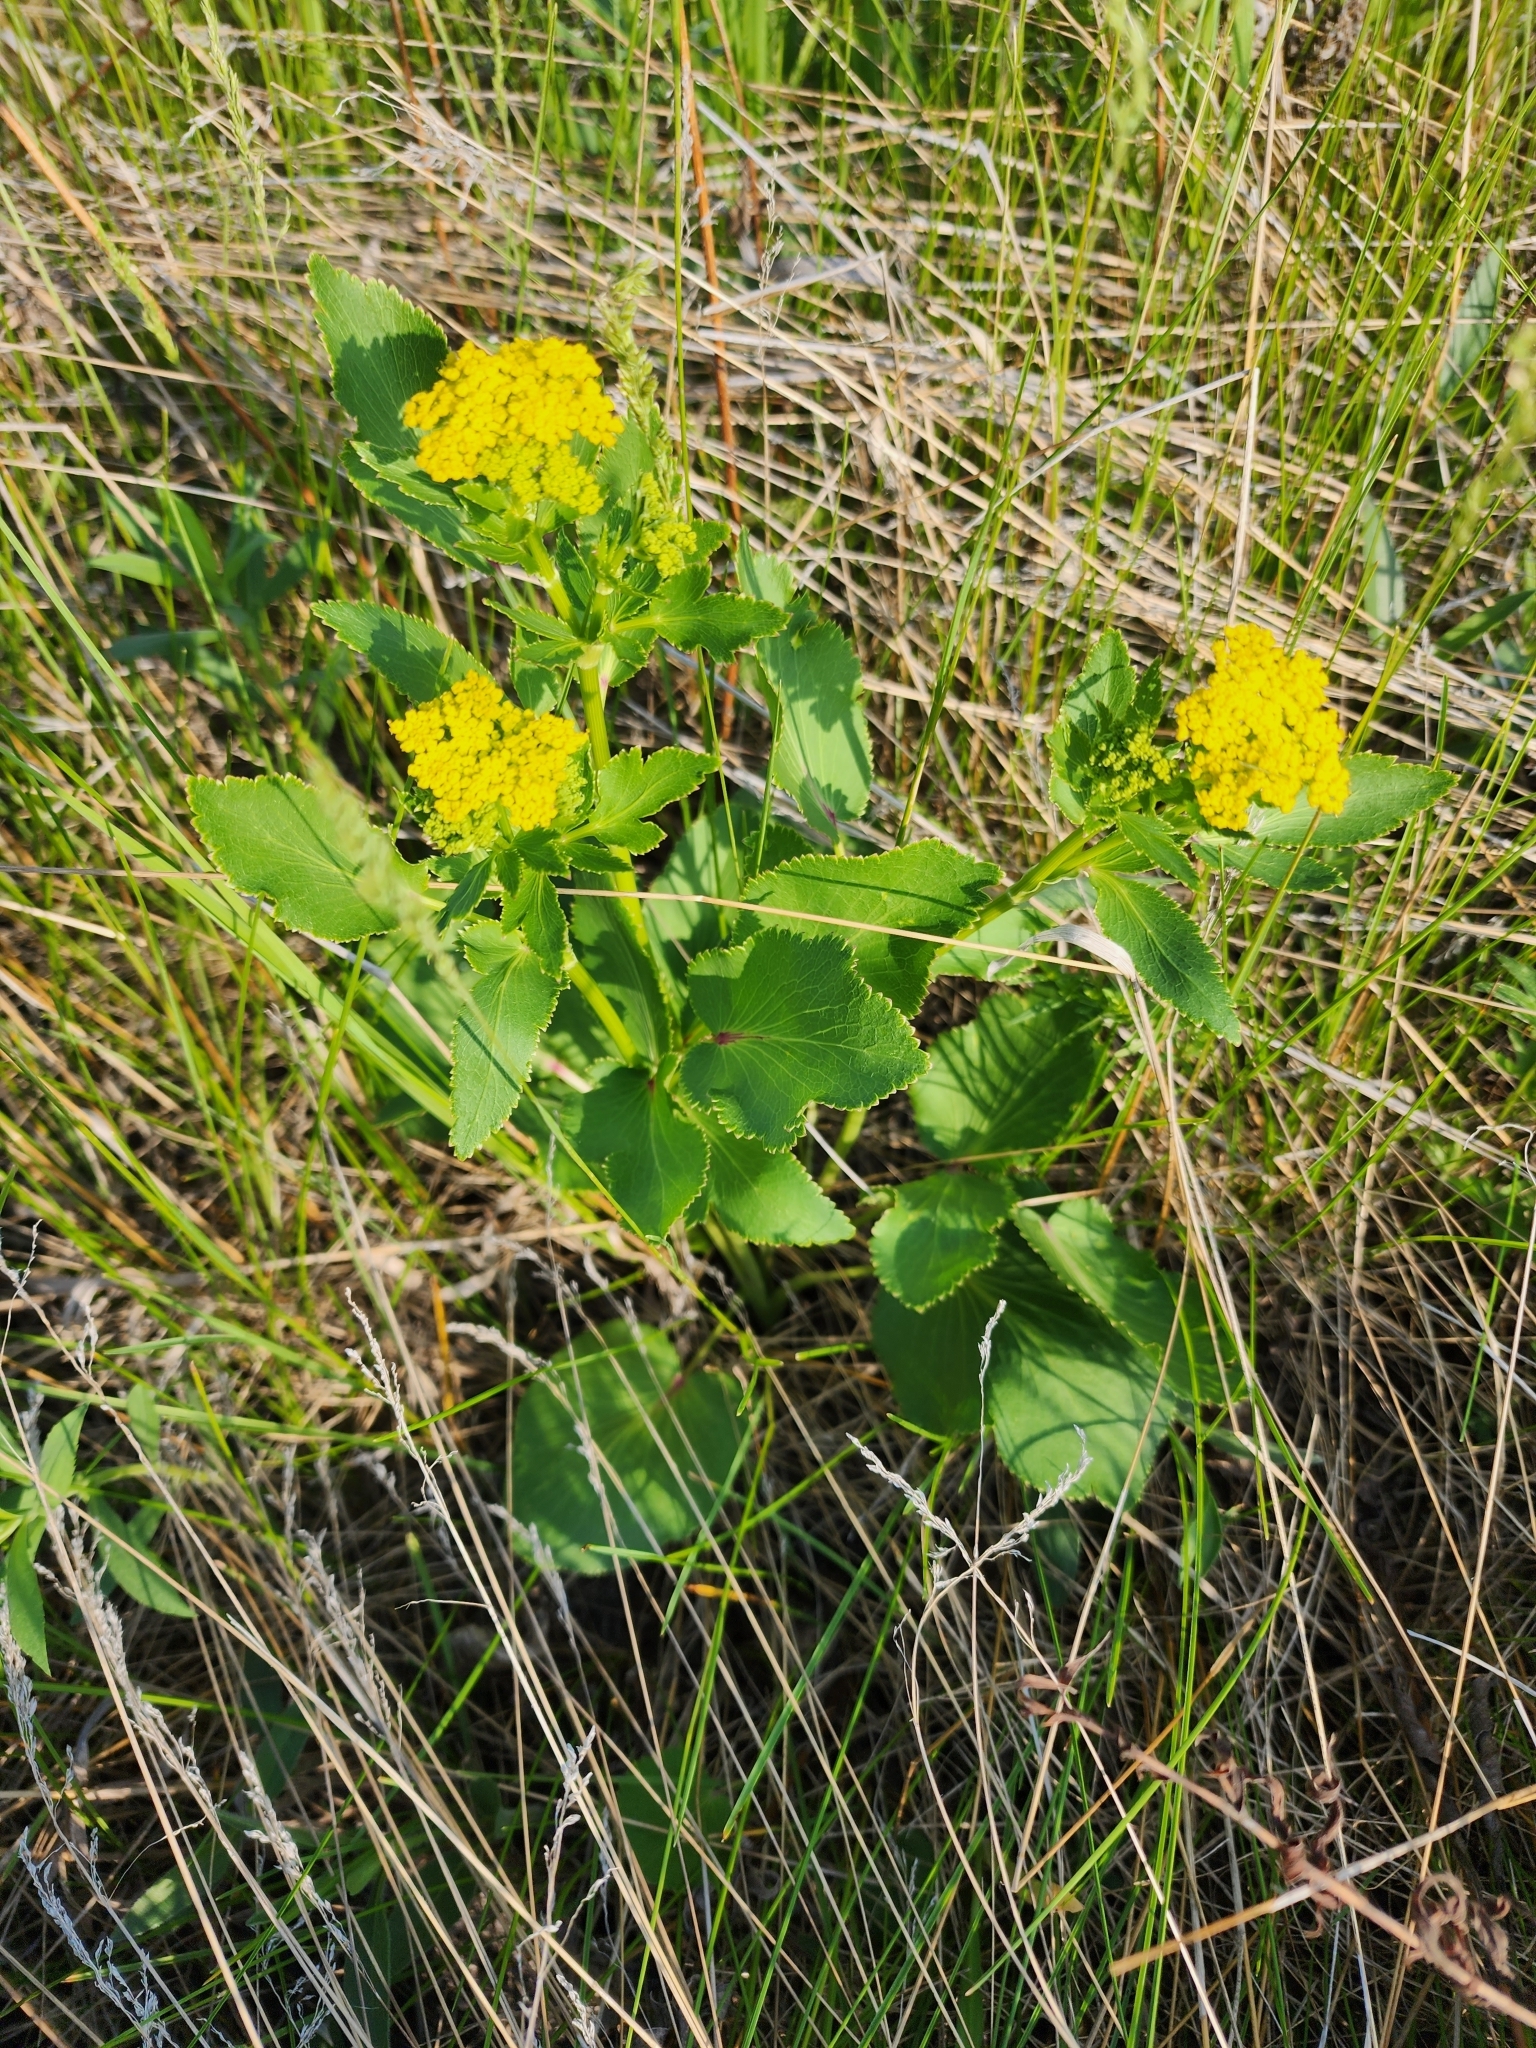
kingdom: Plantae
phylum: Tracheophyta
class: Magnoliopsida
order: Apiales
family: Apiaceae
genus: Zizia
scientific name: Zizia aptera
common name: Heart-leaved alexanders
